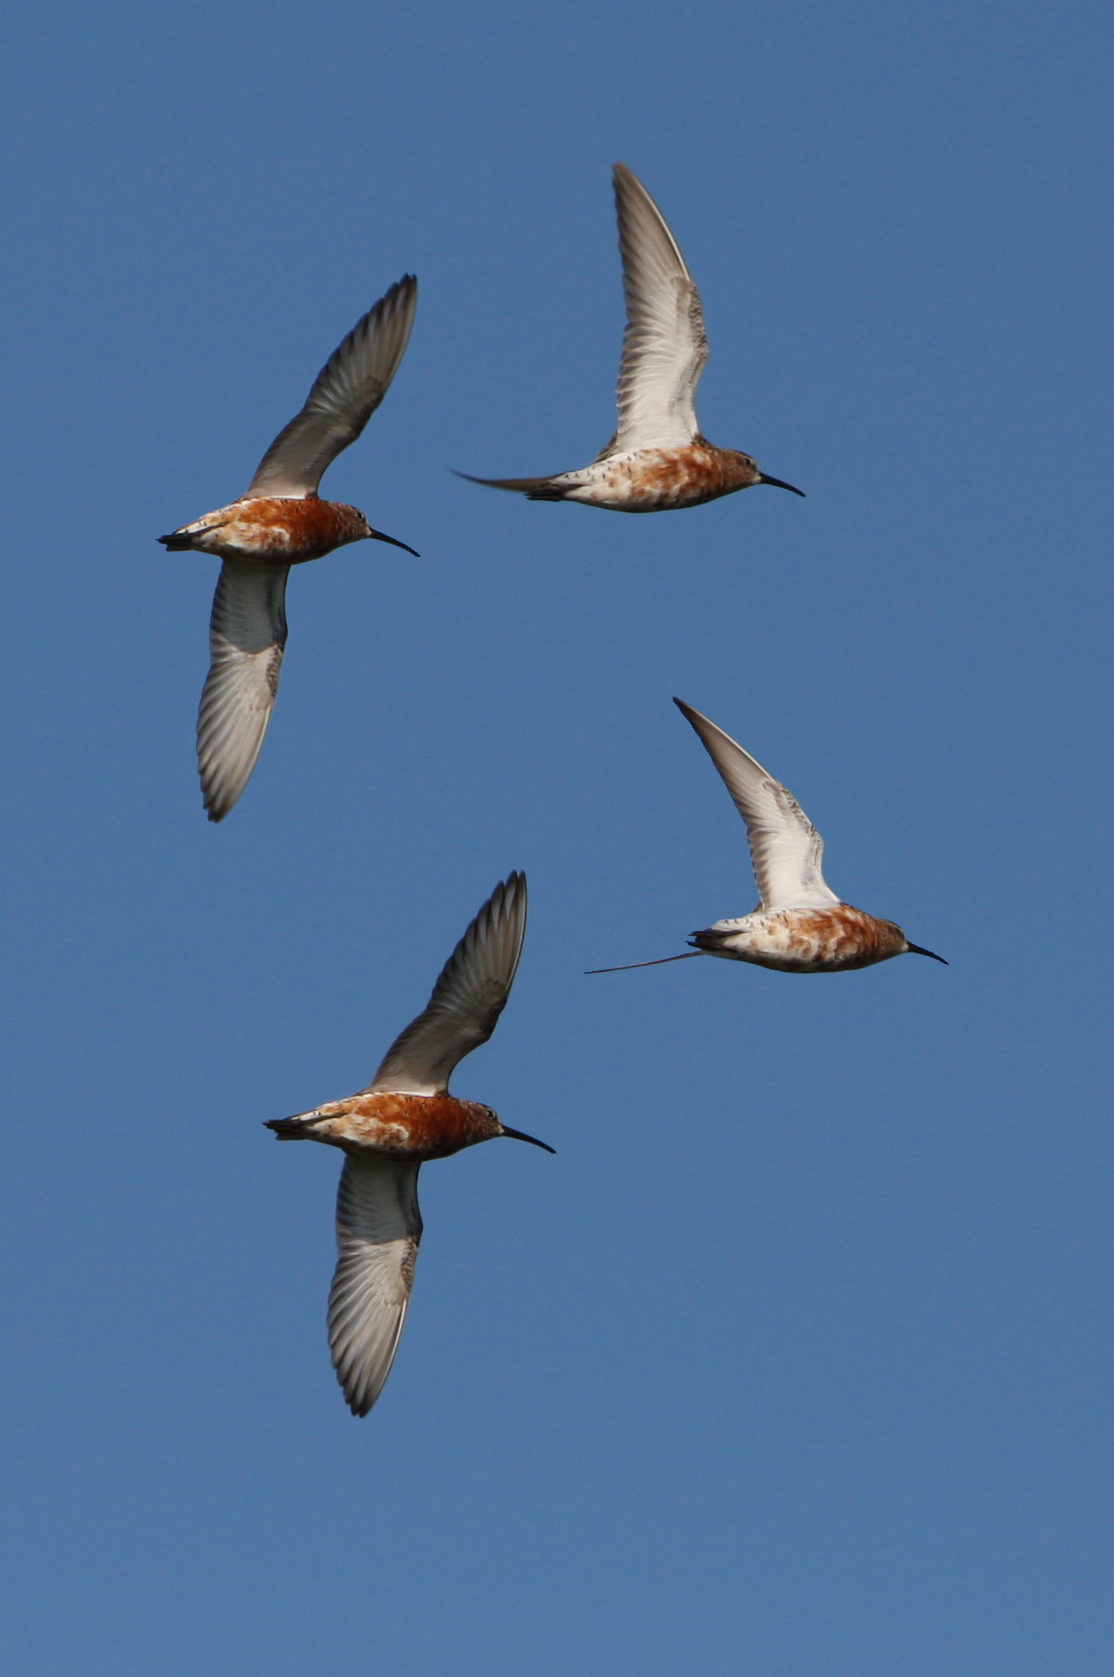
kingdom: Animalia
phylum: Chordata
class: Aves
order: Charadriiformes
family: Scolopacidae
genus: Calidris
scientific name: Calidris ferruginea
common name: Curlew sandpiper
